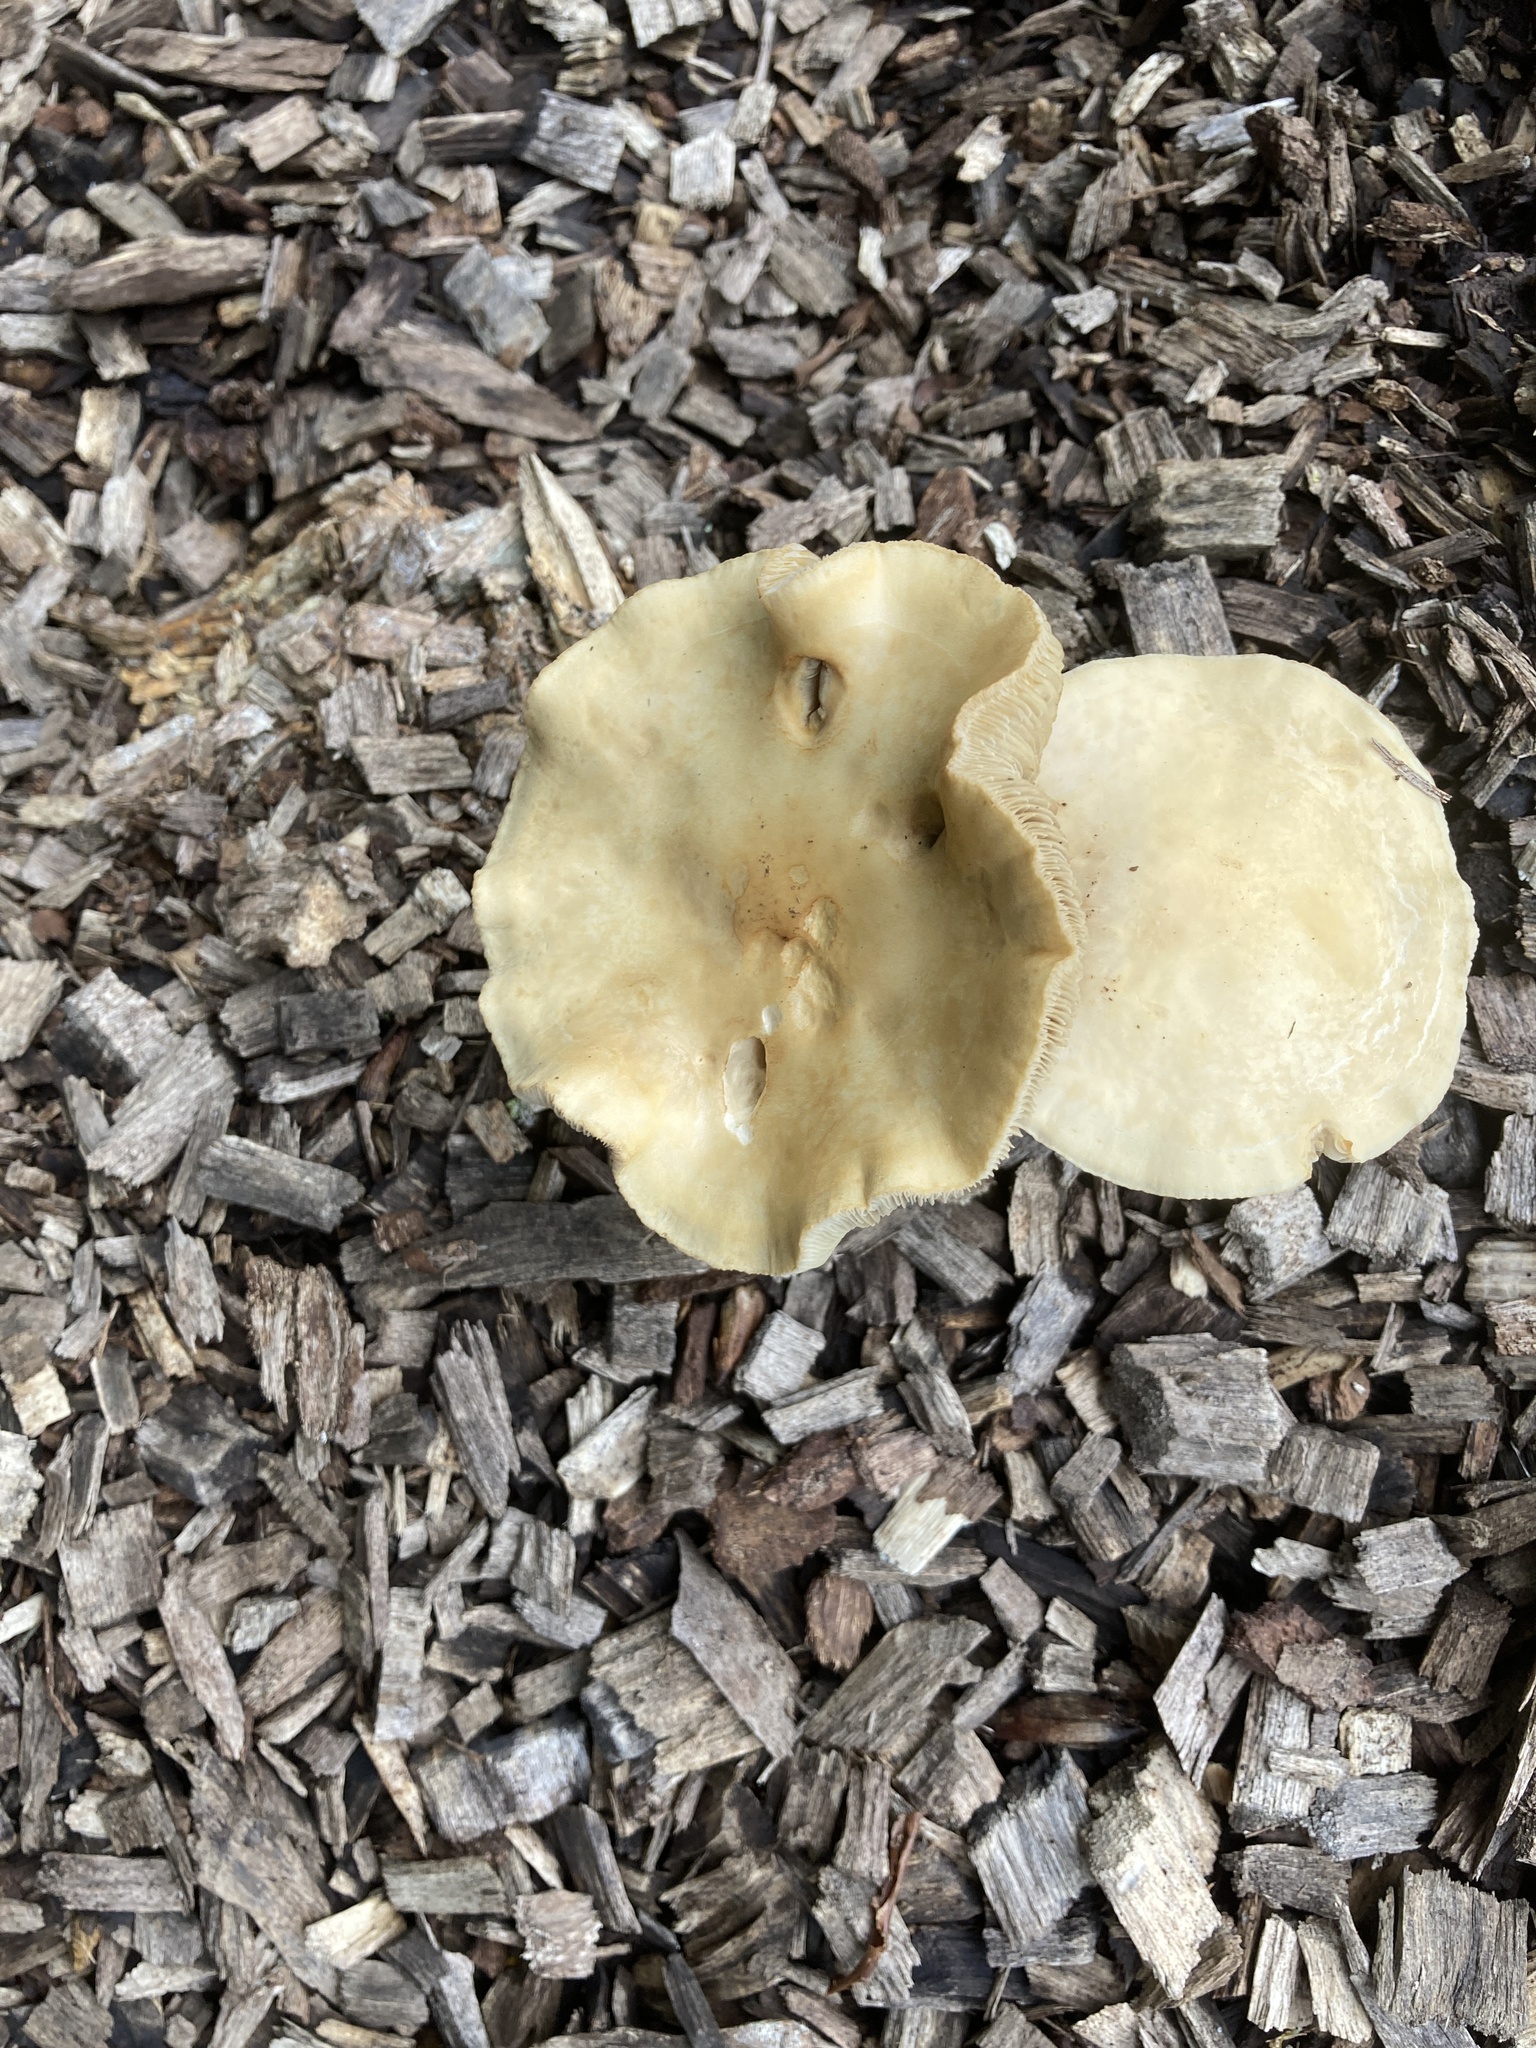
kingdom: Fungi
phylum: Basidiomycota
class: Agaricomycetes
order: Agaricales
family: Strophariaceae
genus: Agrocybe
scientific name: Agrocybe putaminum
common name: Mulch fieldcap
